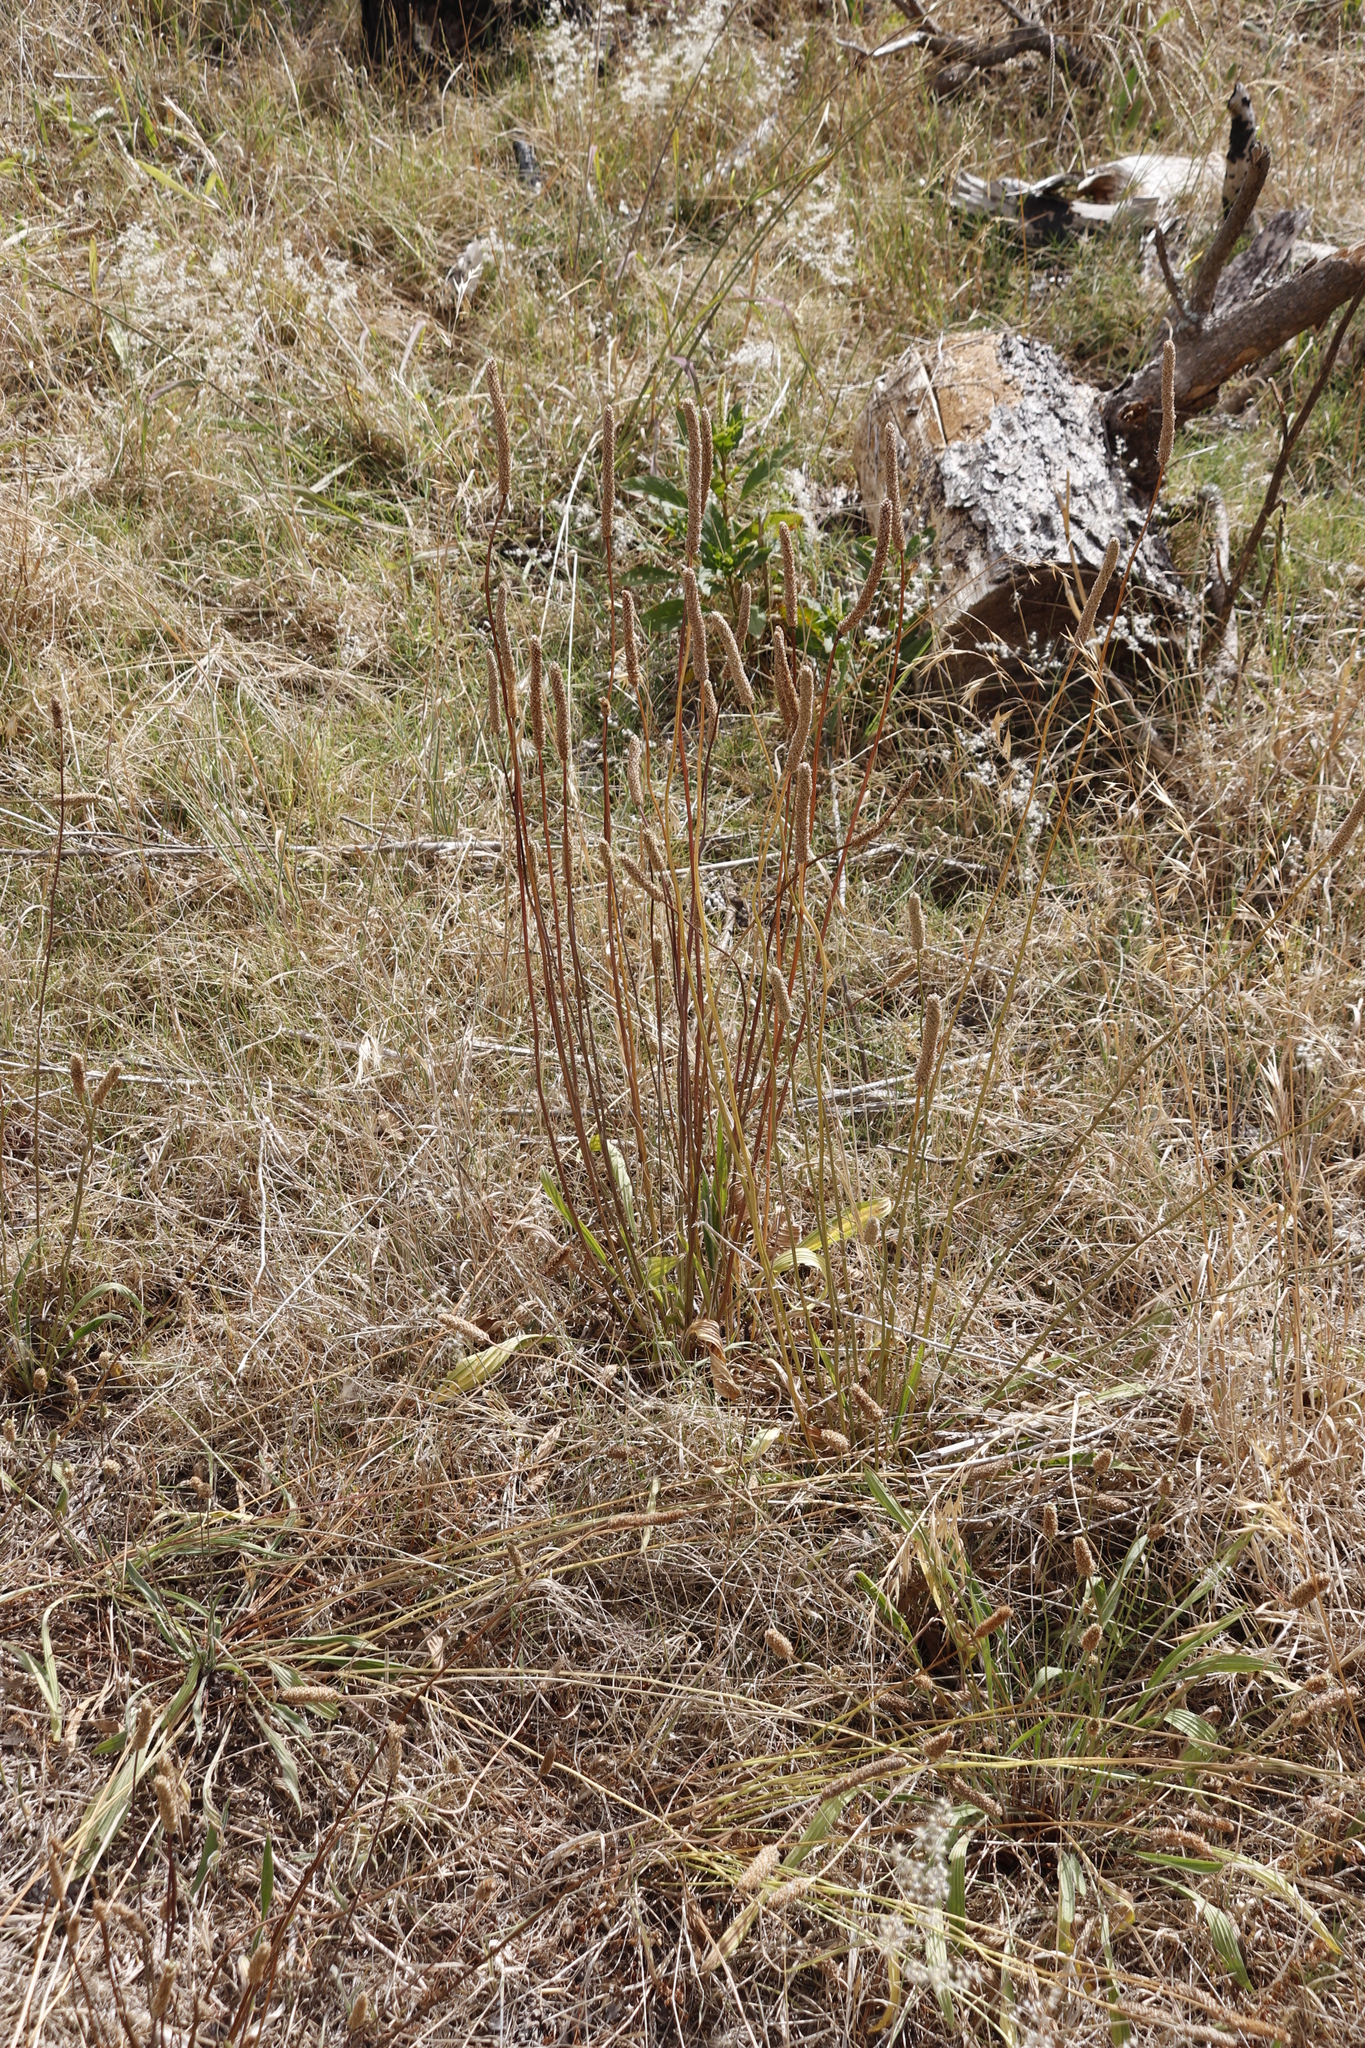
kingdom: Plantae
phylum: Tracheophyta
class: Magnoliopsida
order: Lamiales
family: Plantaginaceae
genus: Plantago
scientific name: Plantago lanceolata
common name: Ribwort plantain
